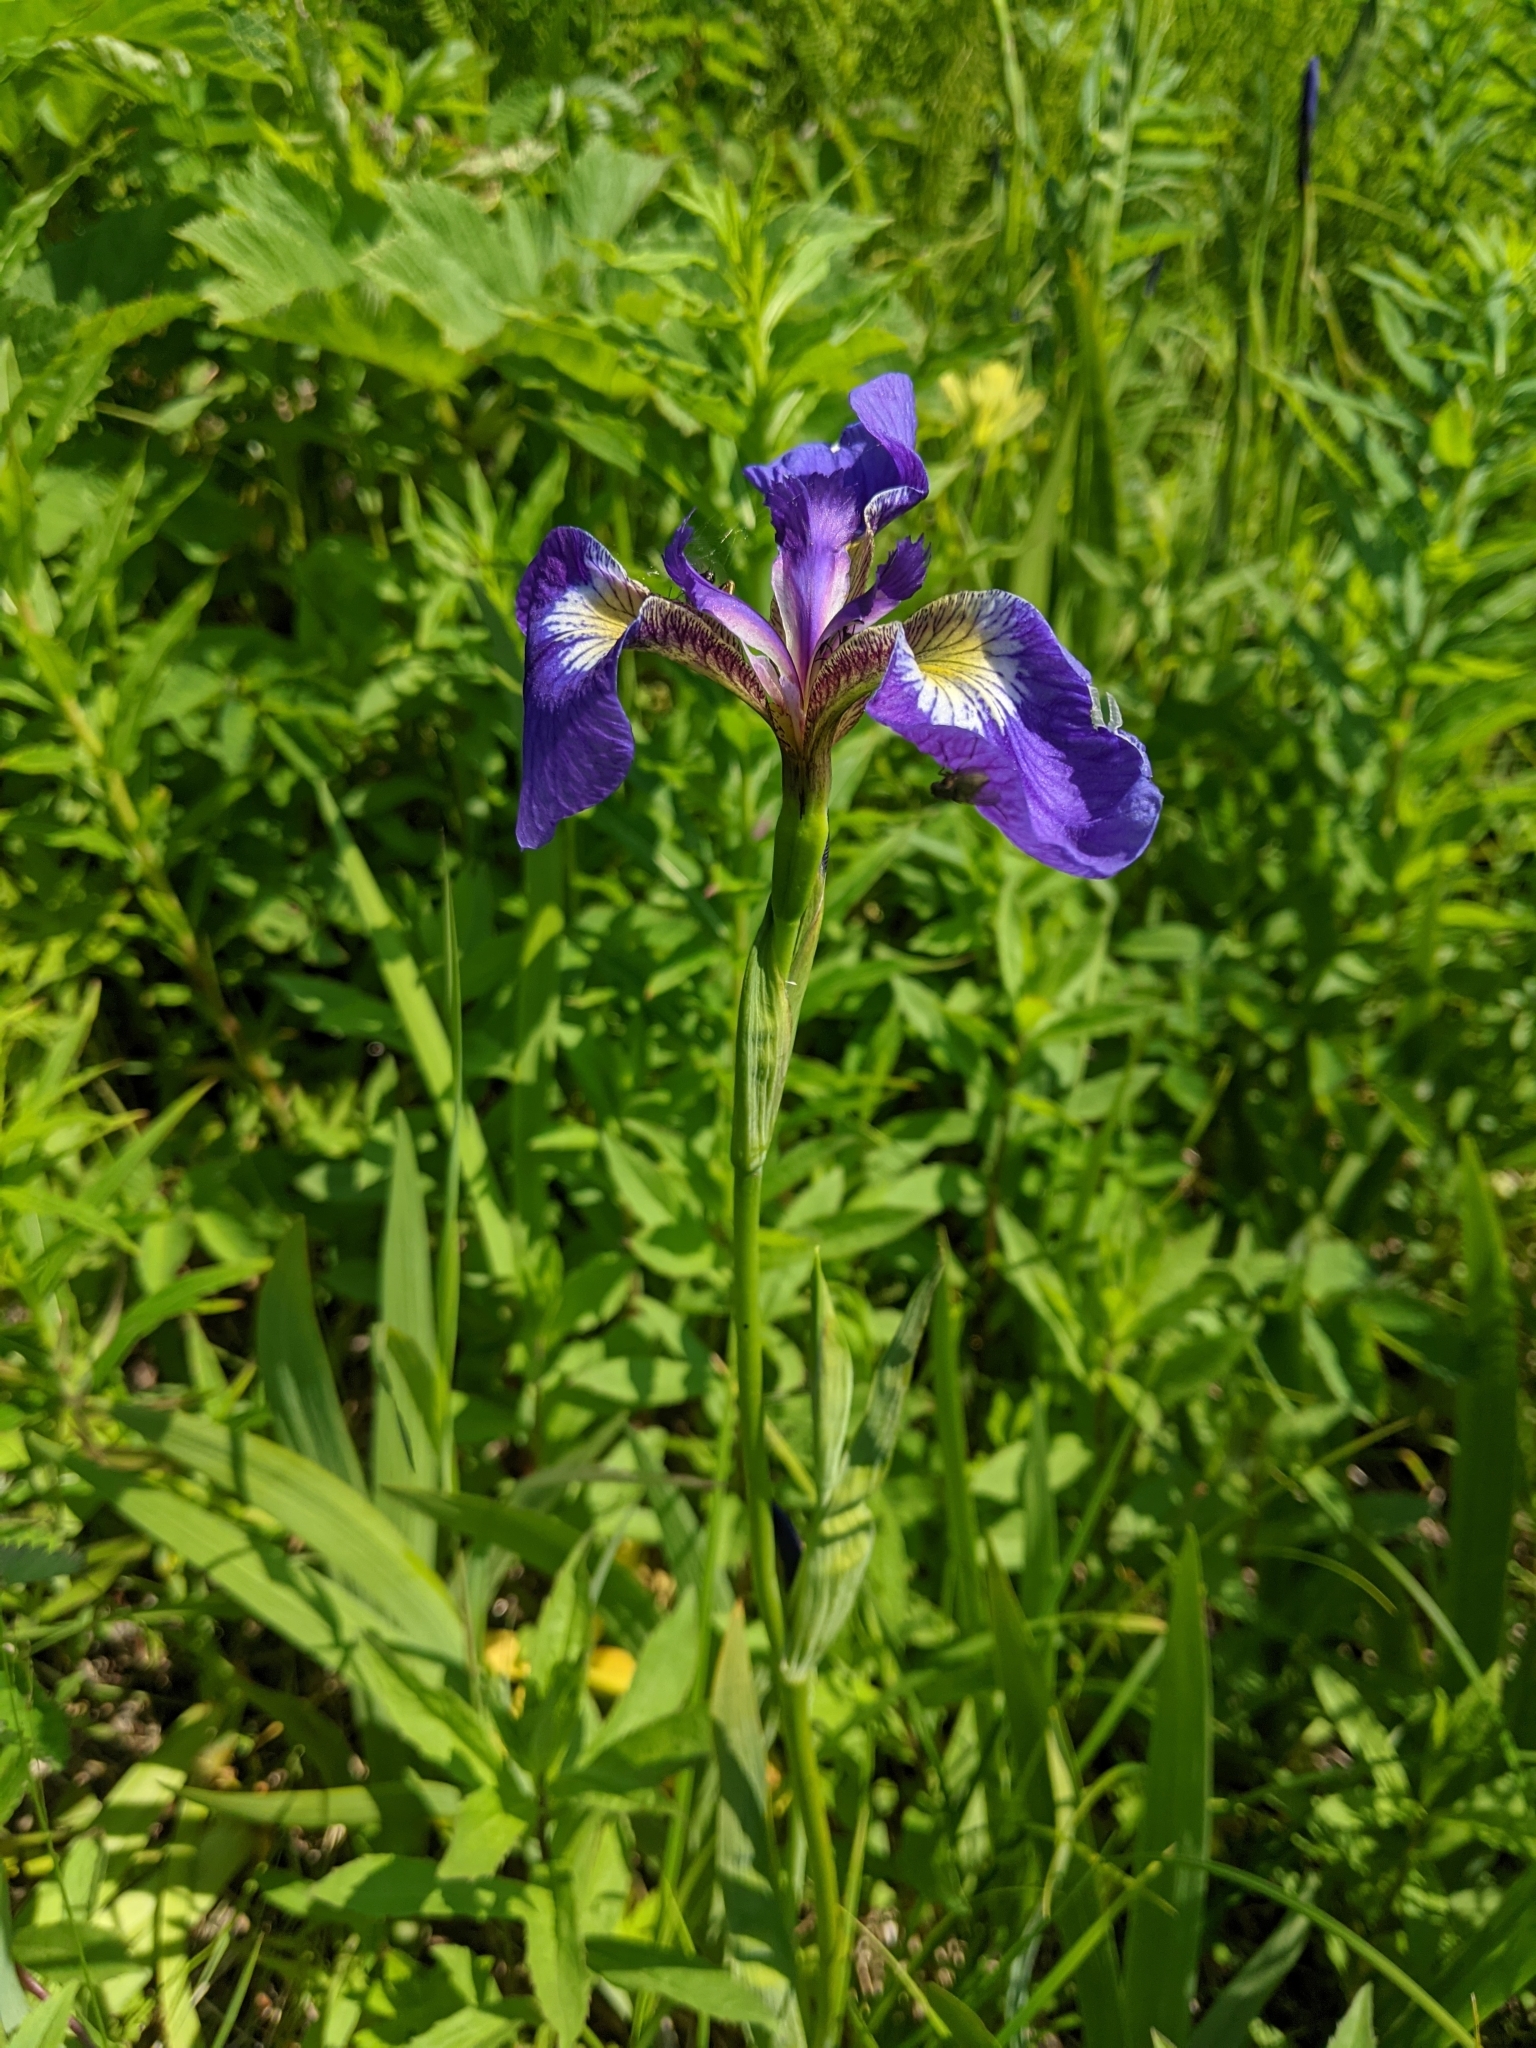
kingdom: Plantae
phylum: Tracheophyta
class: Liliopsida
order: Asparagales
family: Iridaceae
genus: Iris
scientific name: Iris setosa
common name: Arctic blue flag
